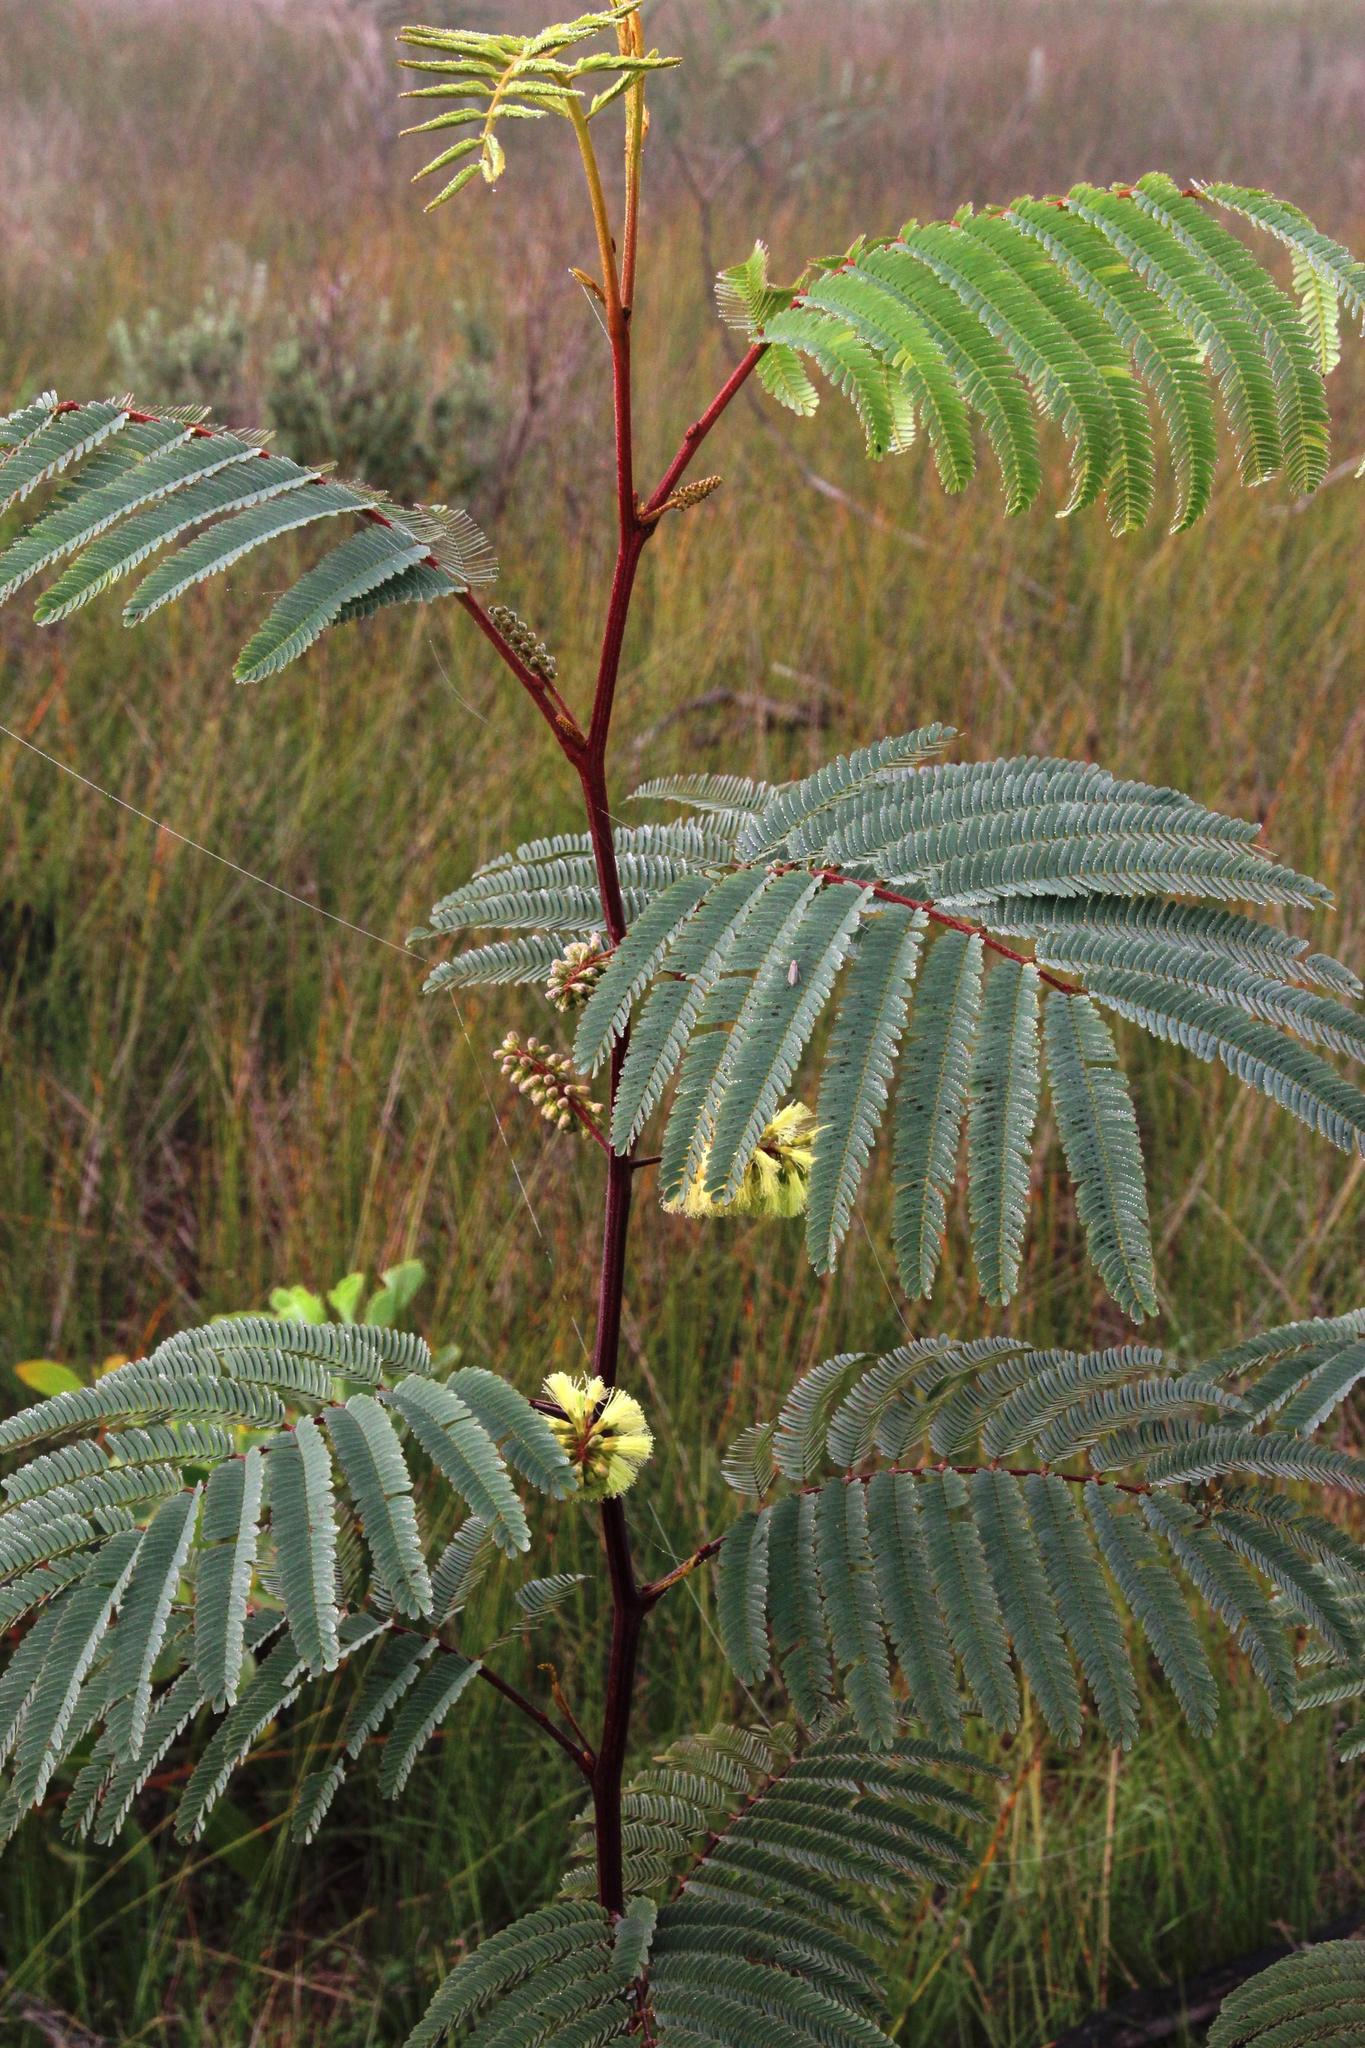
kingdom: Plantae
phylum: Tracheophyta
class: Magnoliopsida
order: Fabales
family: Fabaceae
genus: Paraserianthes
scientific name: Paraserianthes lophantha
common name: Plume albizia
